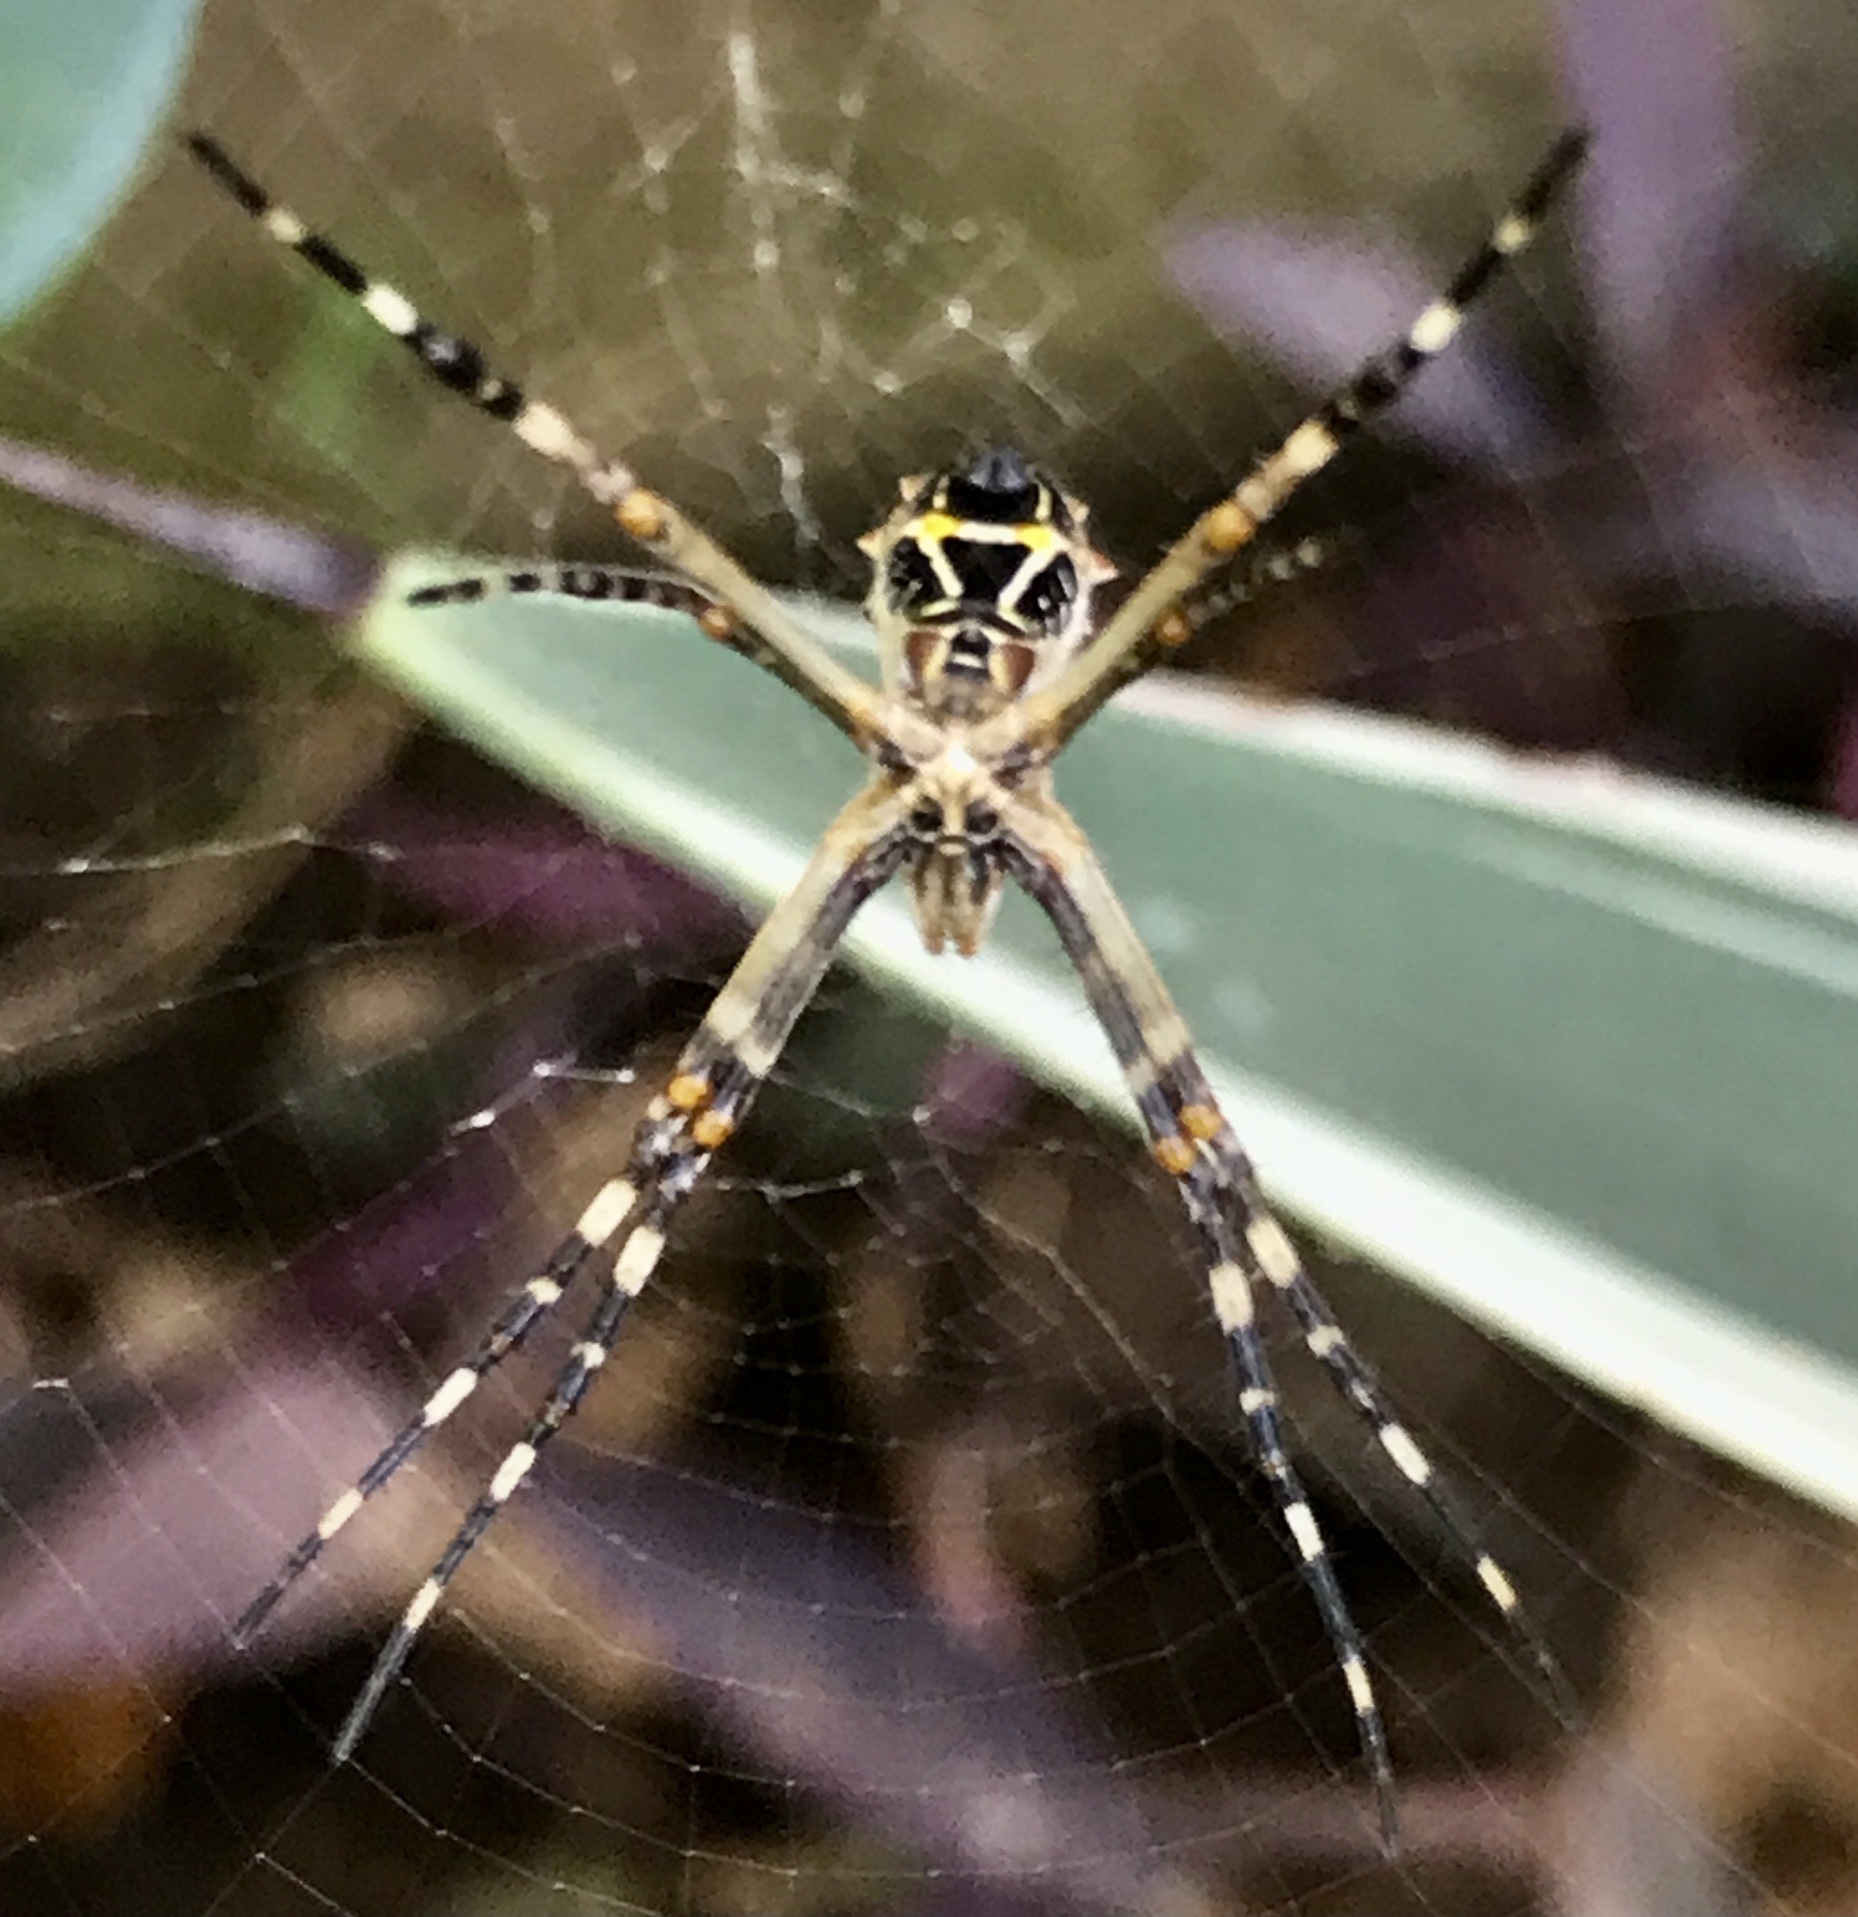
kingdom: Animalia
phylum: Arthropoda
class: Arachnida
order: Araneae
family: Araneidae
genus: Argiope
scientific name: Argiope argentata
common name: Orb weavers
